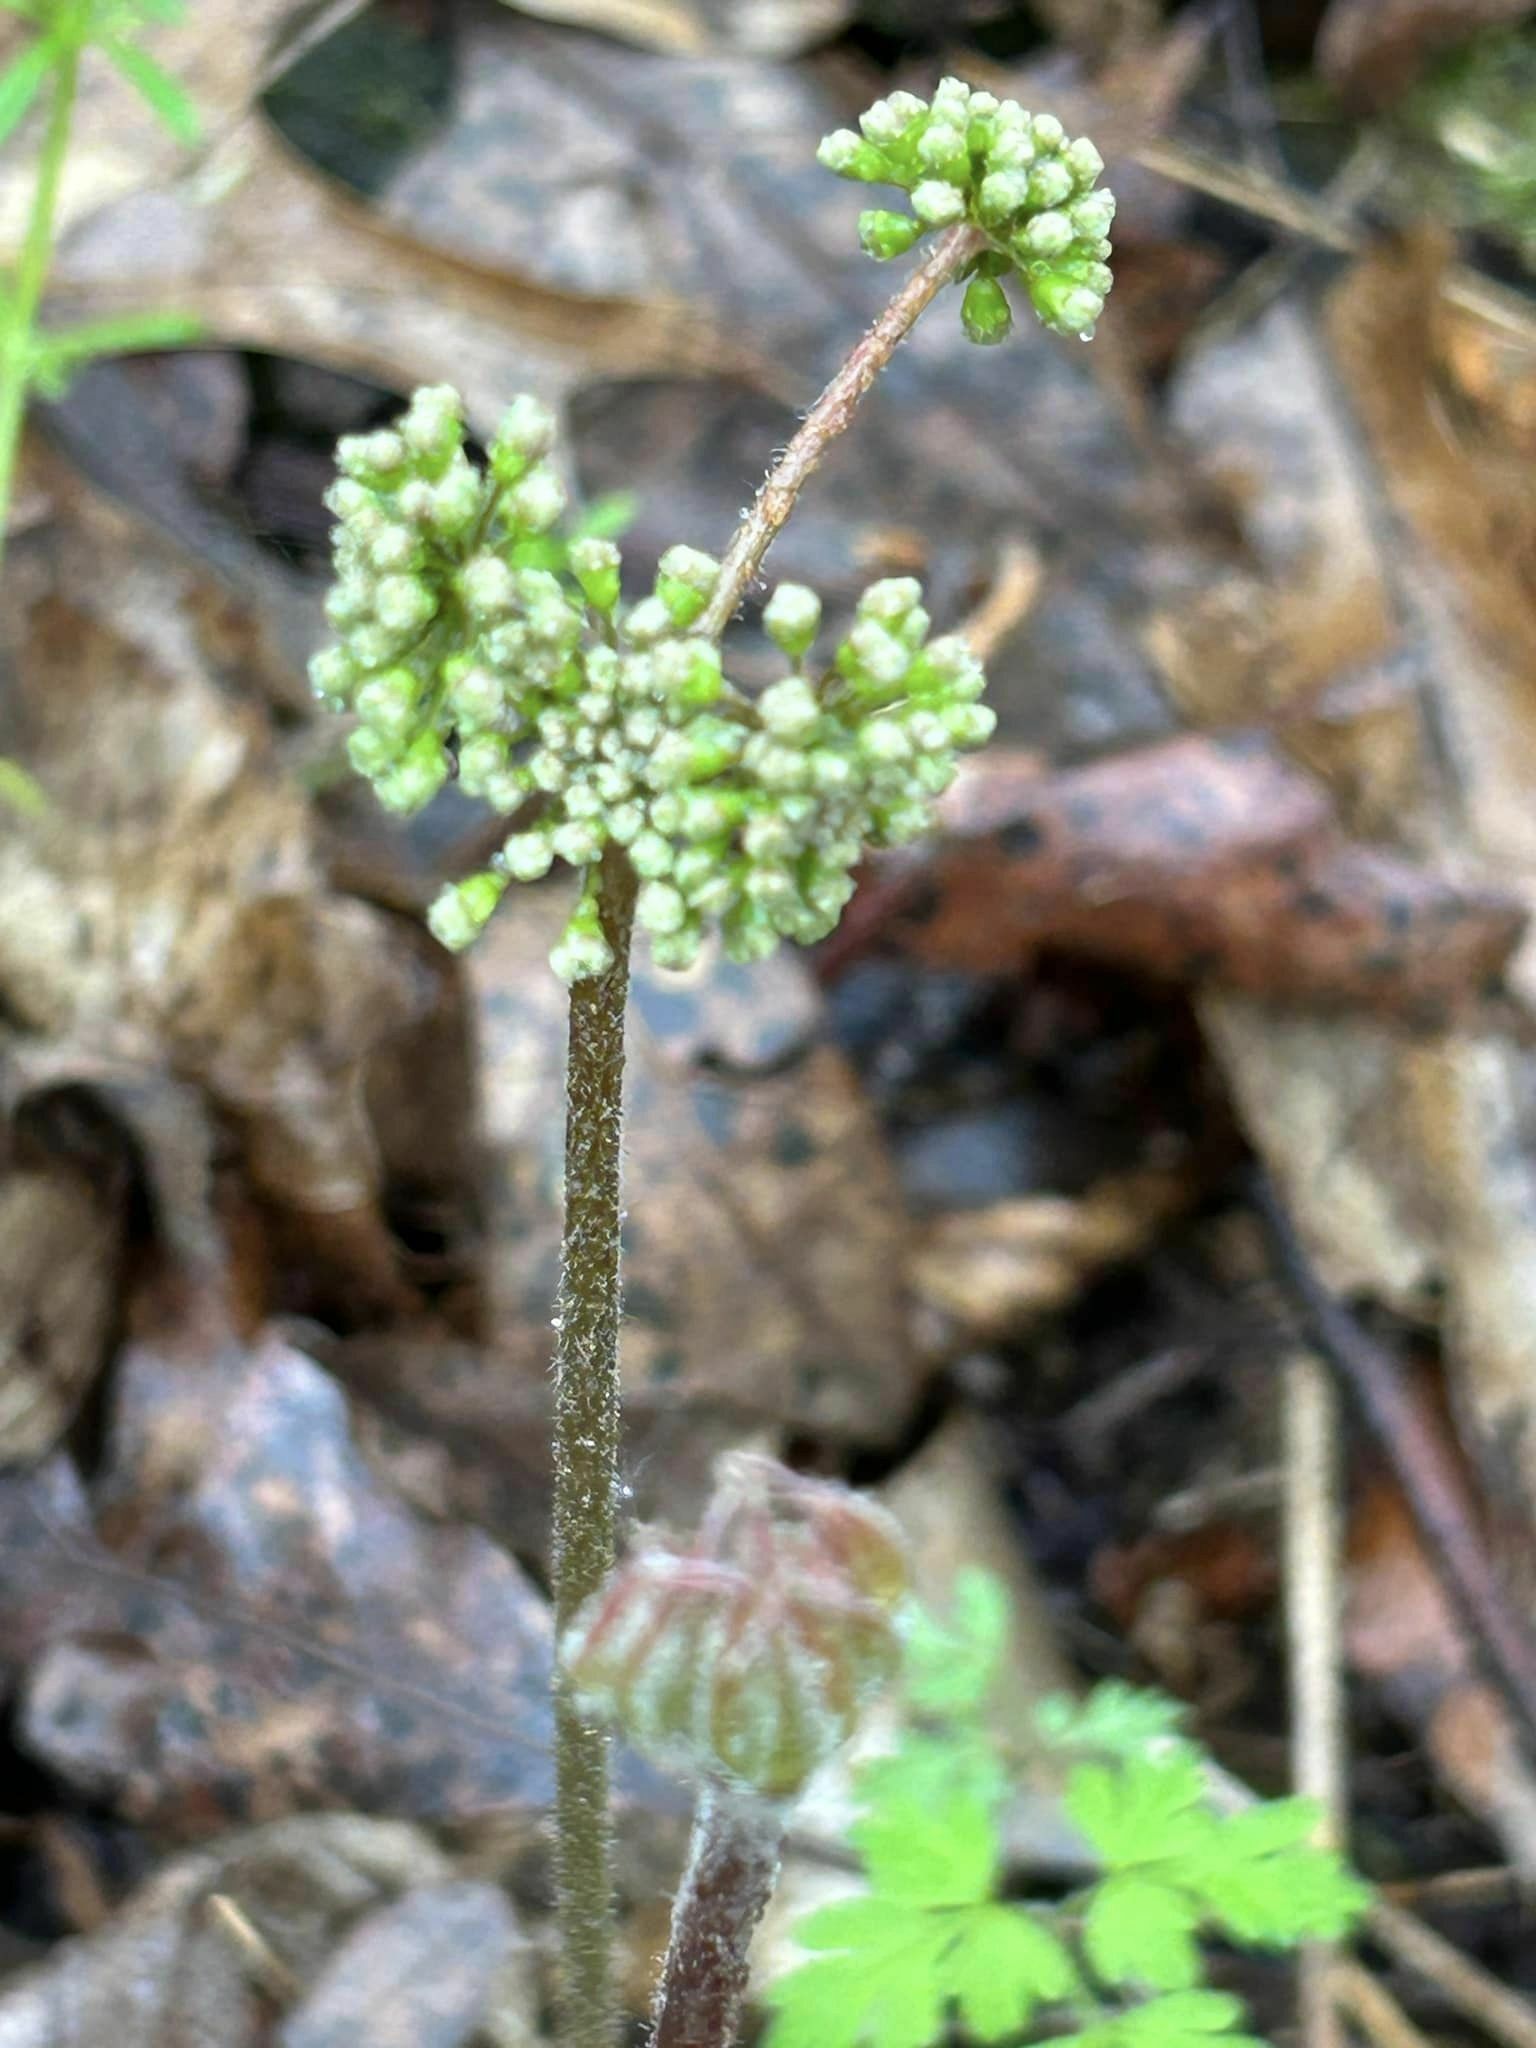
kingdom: Plantae
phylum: Tracheophyta
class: Magnoliopsida
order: Apiales
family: Araliaceae
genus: Aralia
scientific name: Aralia nudicaulis
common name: Wild sarsaparilla
